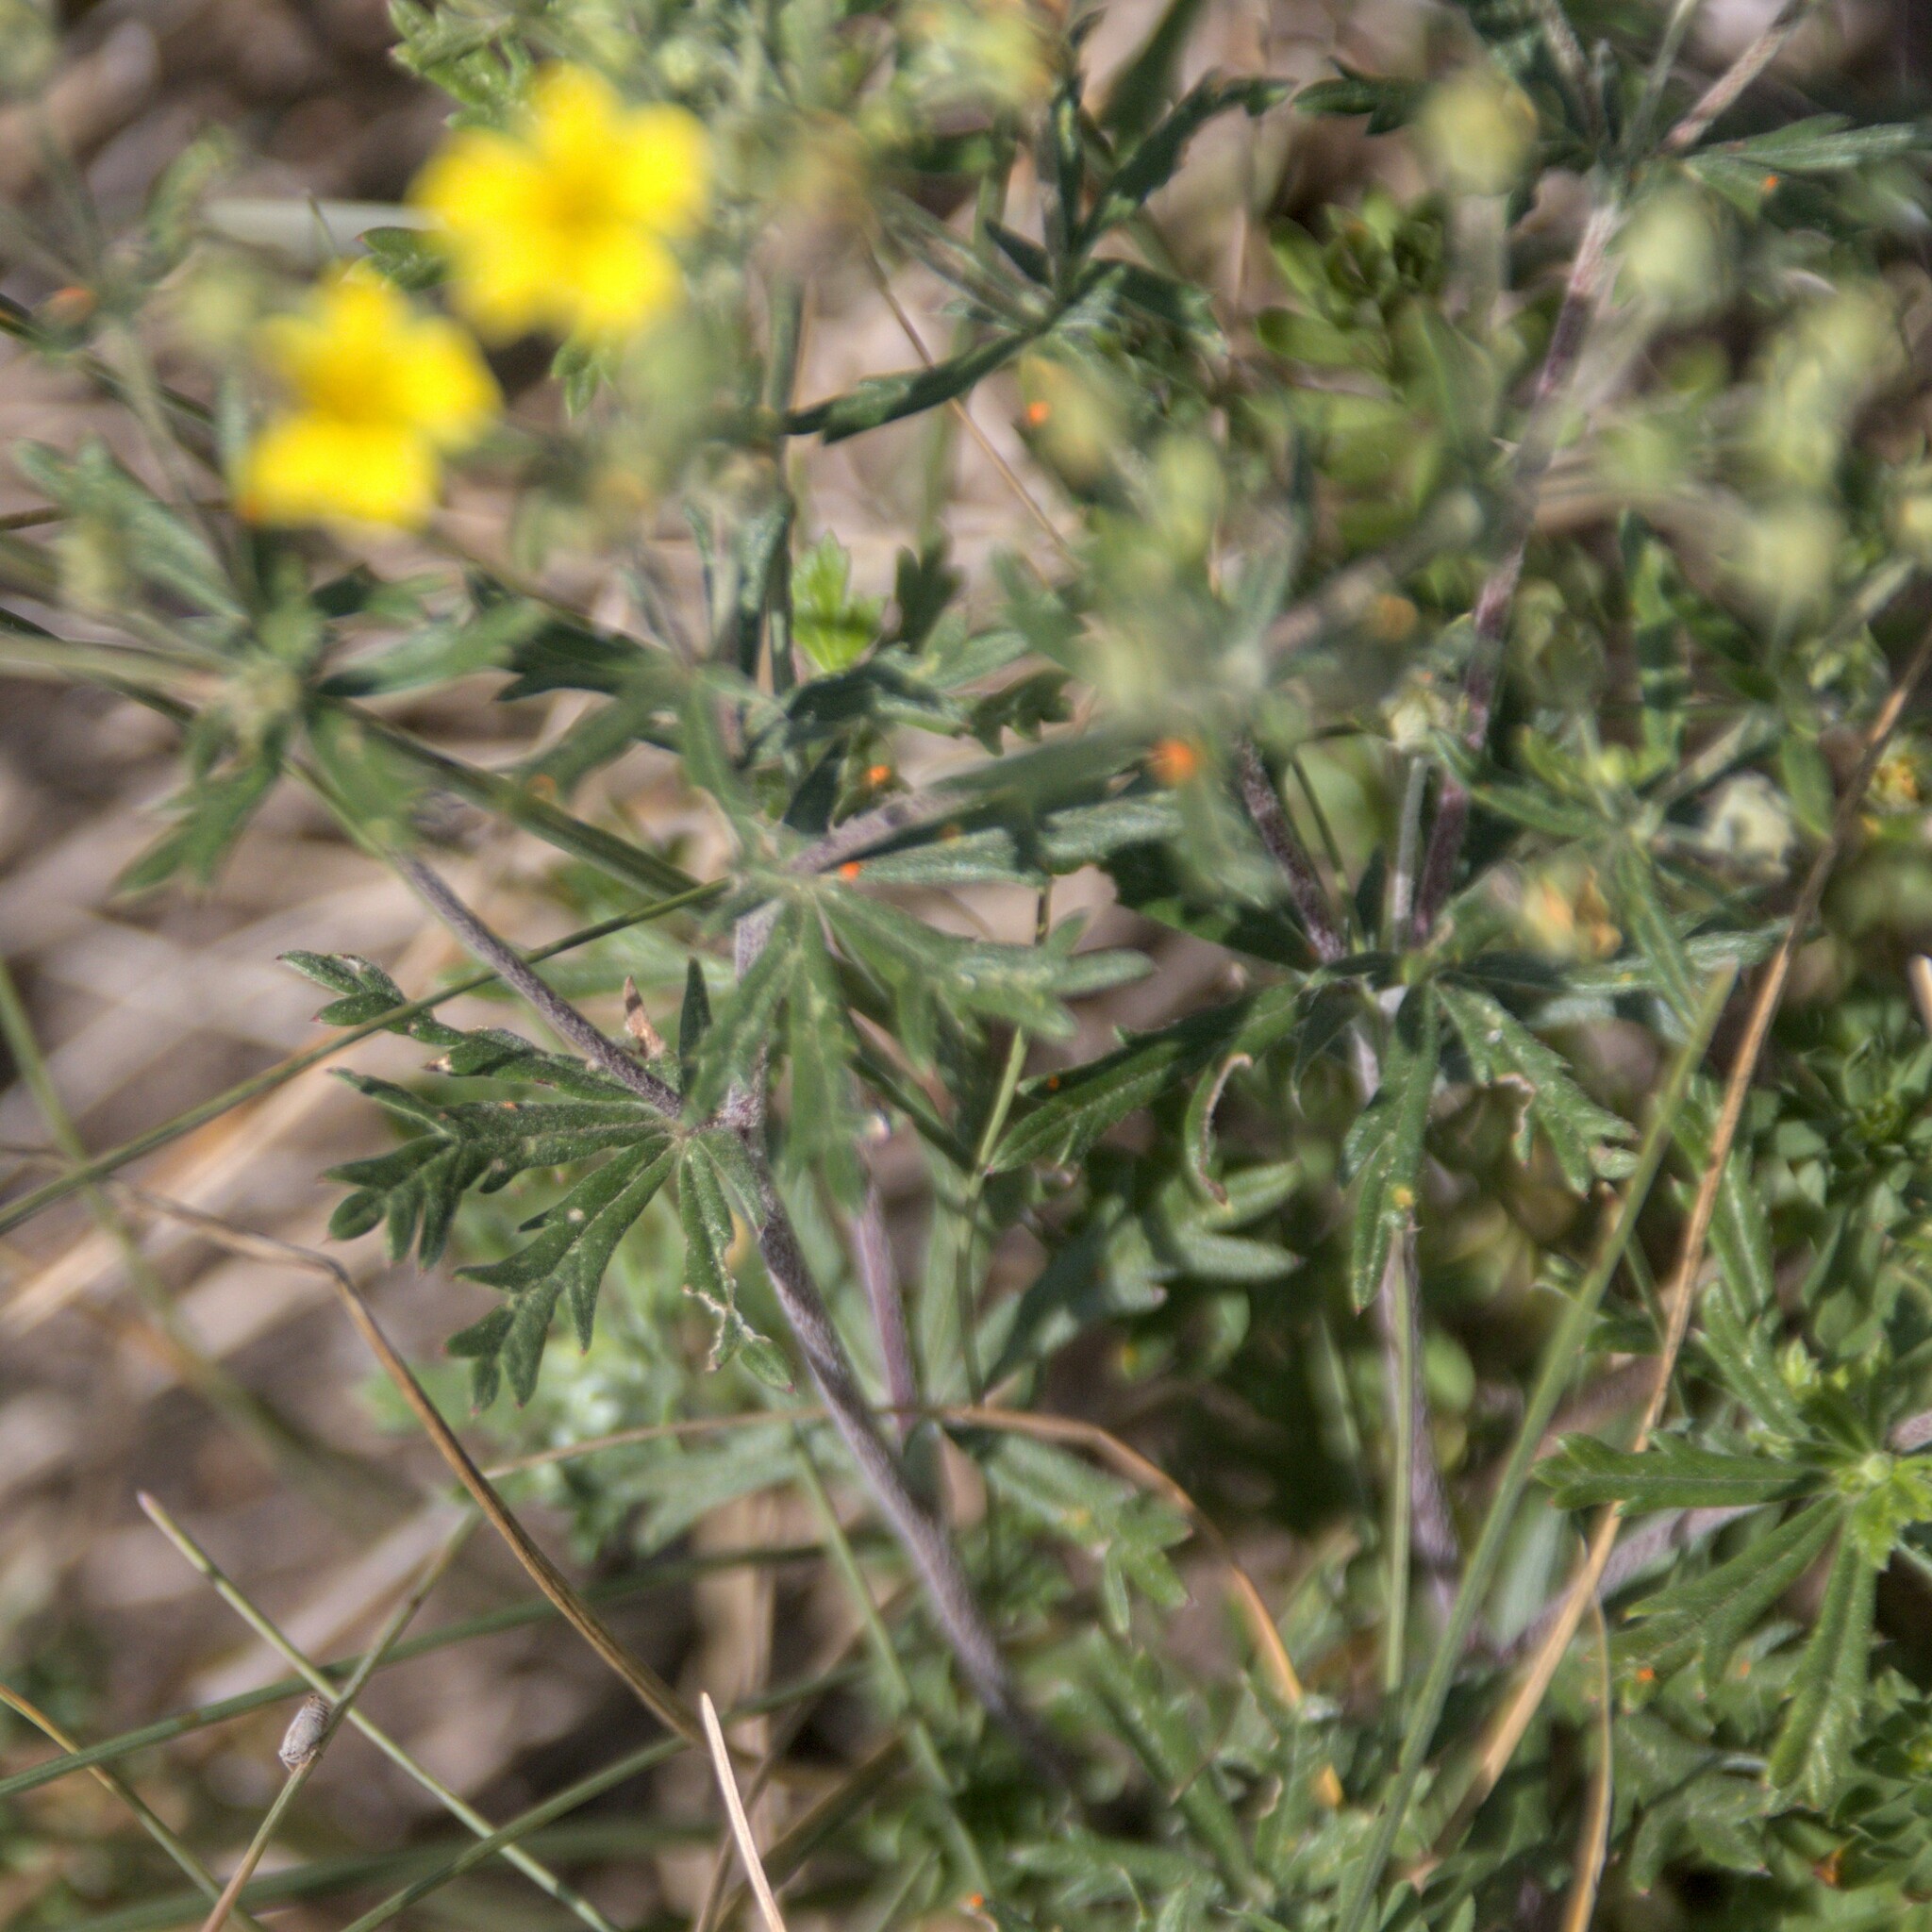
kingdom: Plantae
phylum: Tracheophyta
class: Magnoliopsida
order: Rosales
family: Rosaceae
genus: Potentilla
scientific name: Potentilla argentea
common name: Hoary cinquefoil
